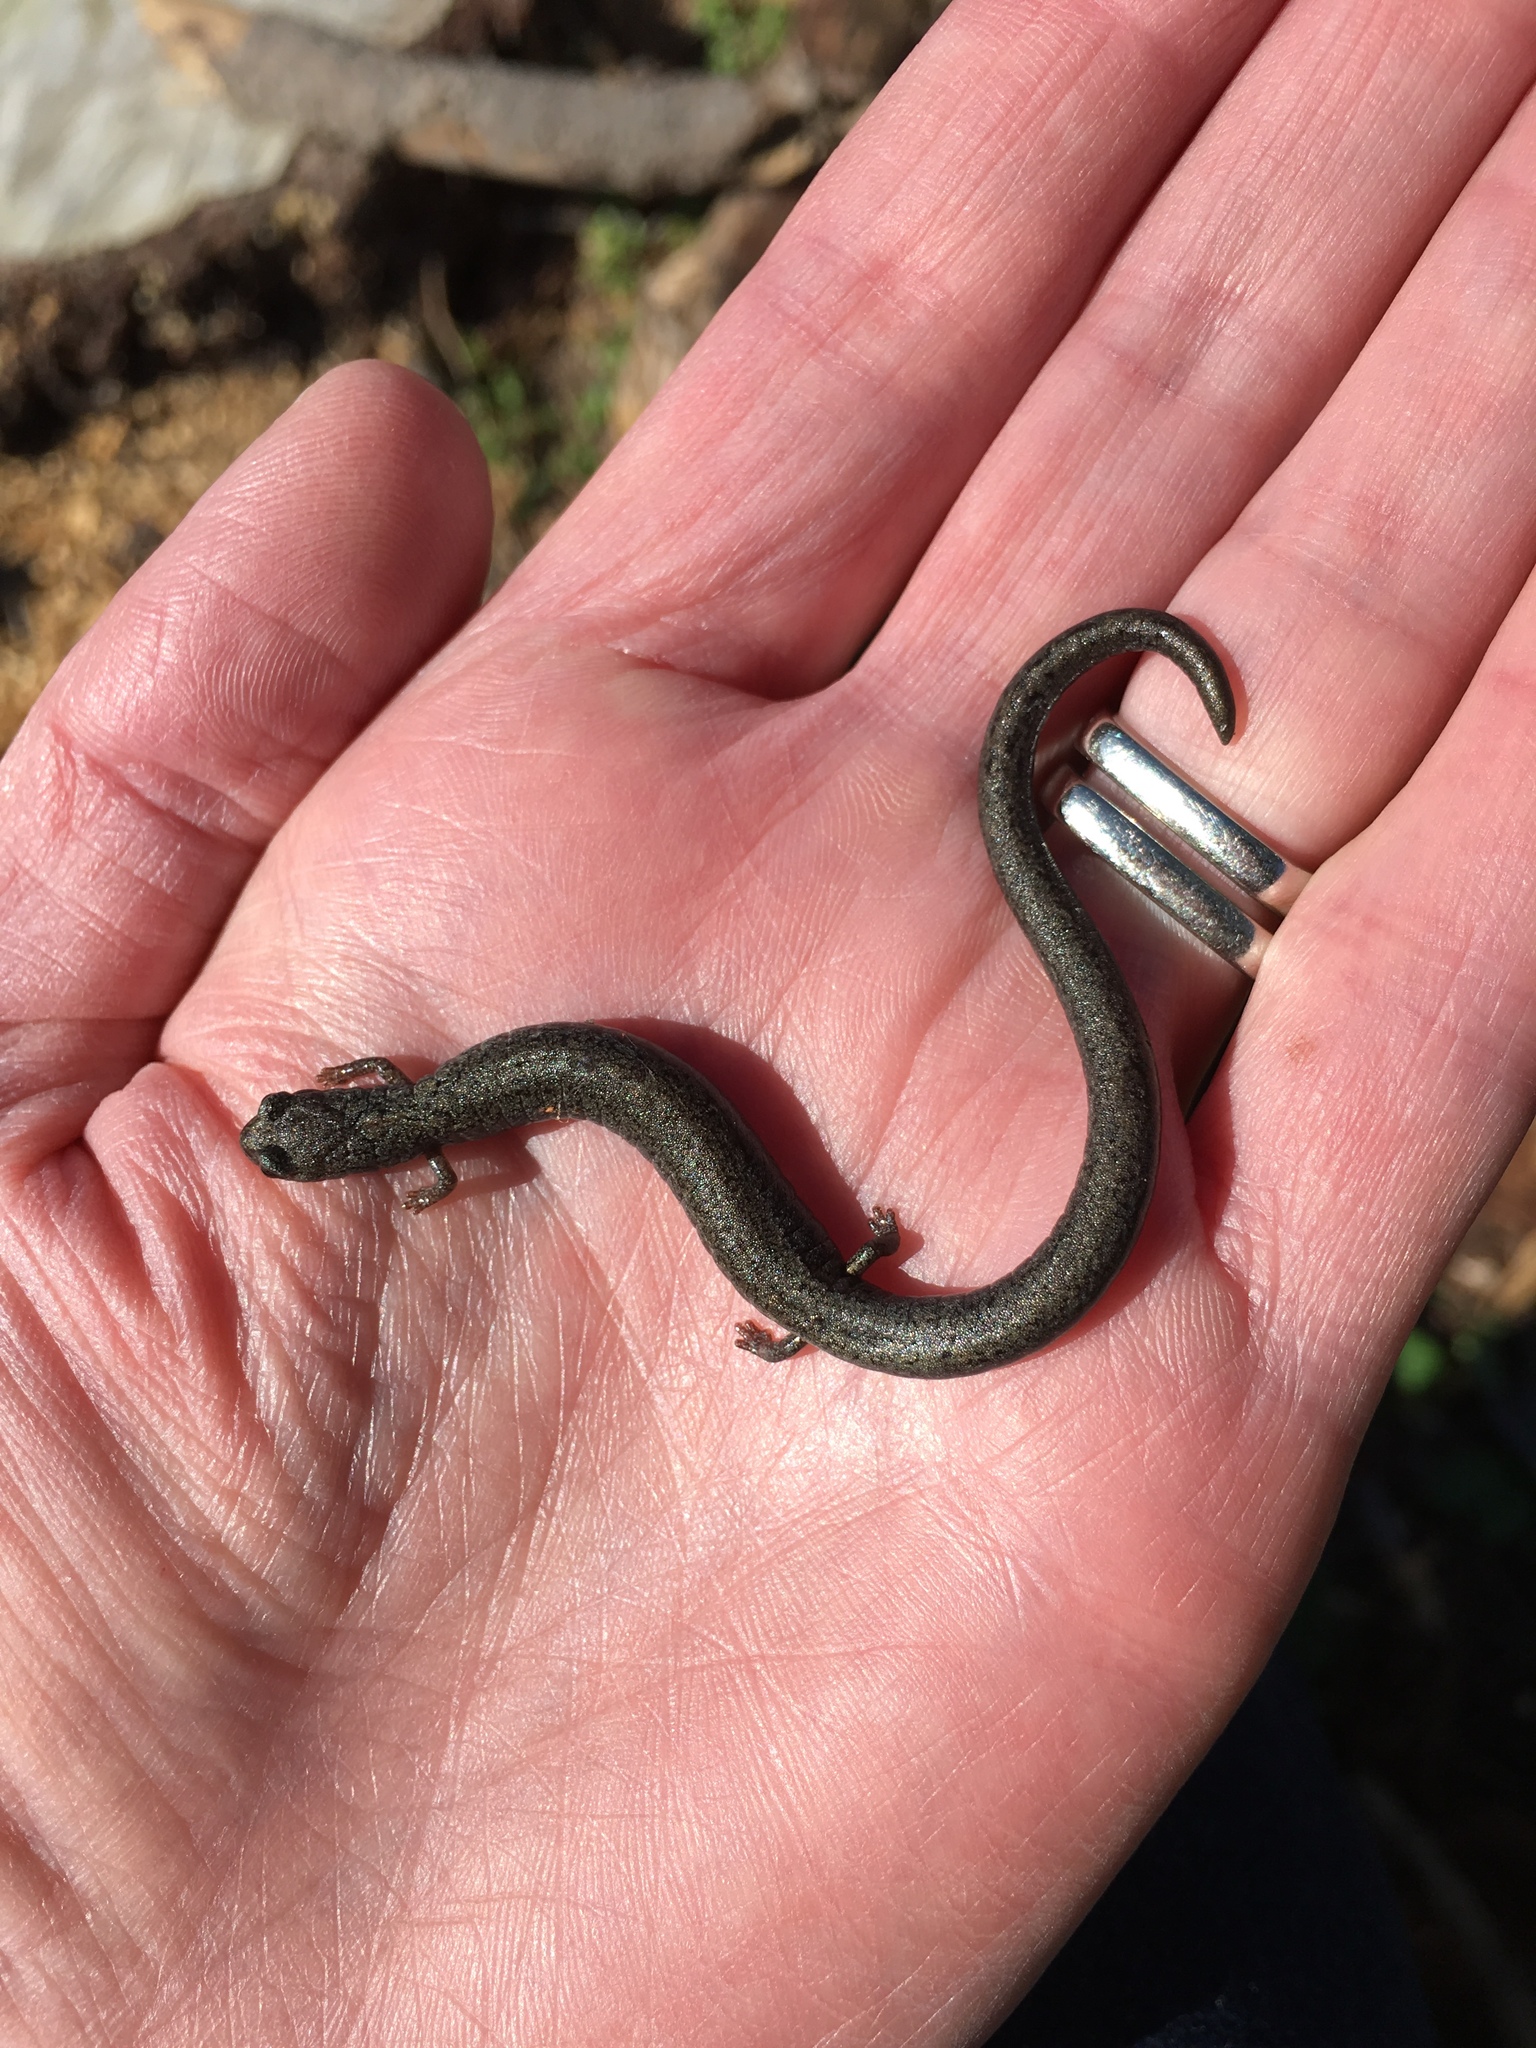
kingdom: Animalia
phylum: Chordata
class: Amphibia
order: Caudata
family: Plethodontidae
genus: Batrachoseps
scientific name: Batrachoseps luciae
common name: Santa lucia mountains slender salamander
